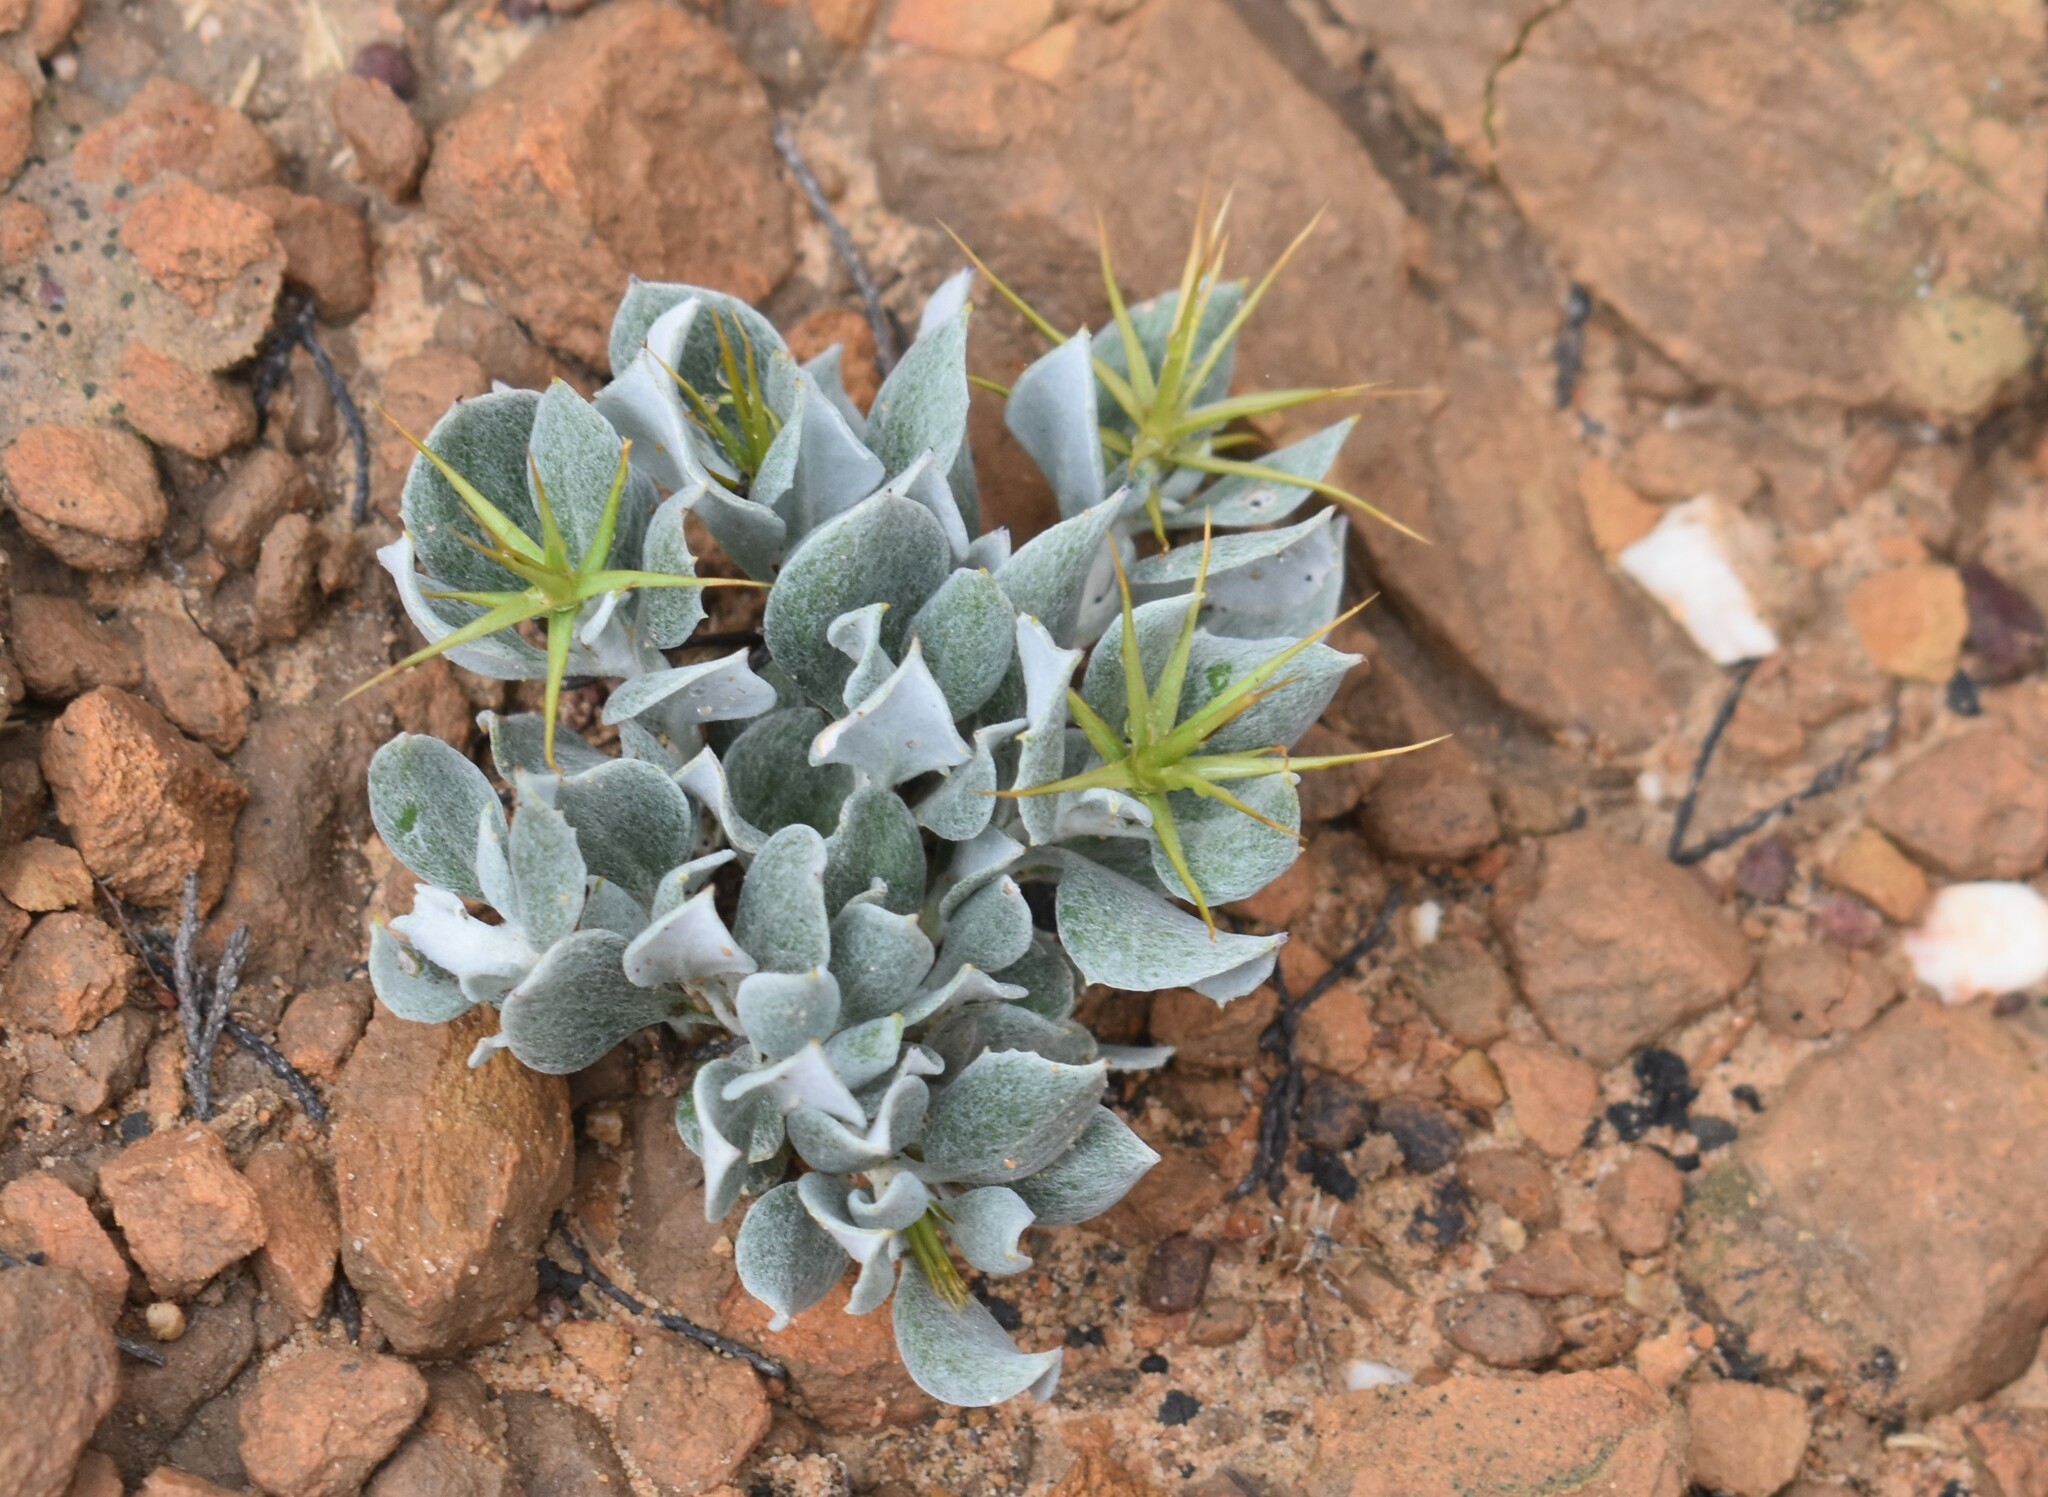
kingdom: Plantae
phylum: Tracheophyta
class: Magnoliopsida
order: Asterales
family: Asteraceae
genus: Macledium
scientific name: Macledium spinosum
